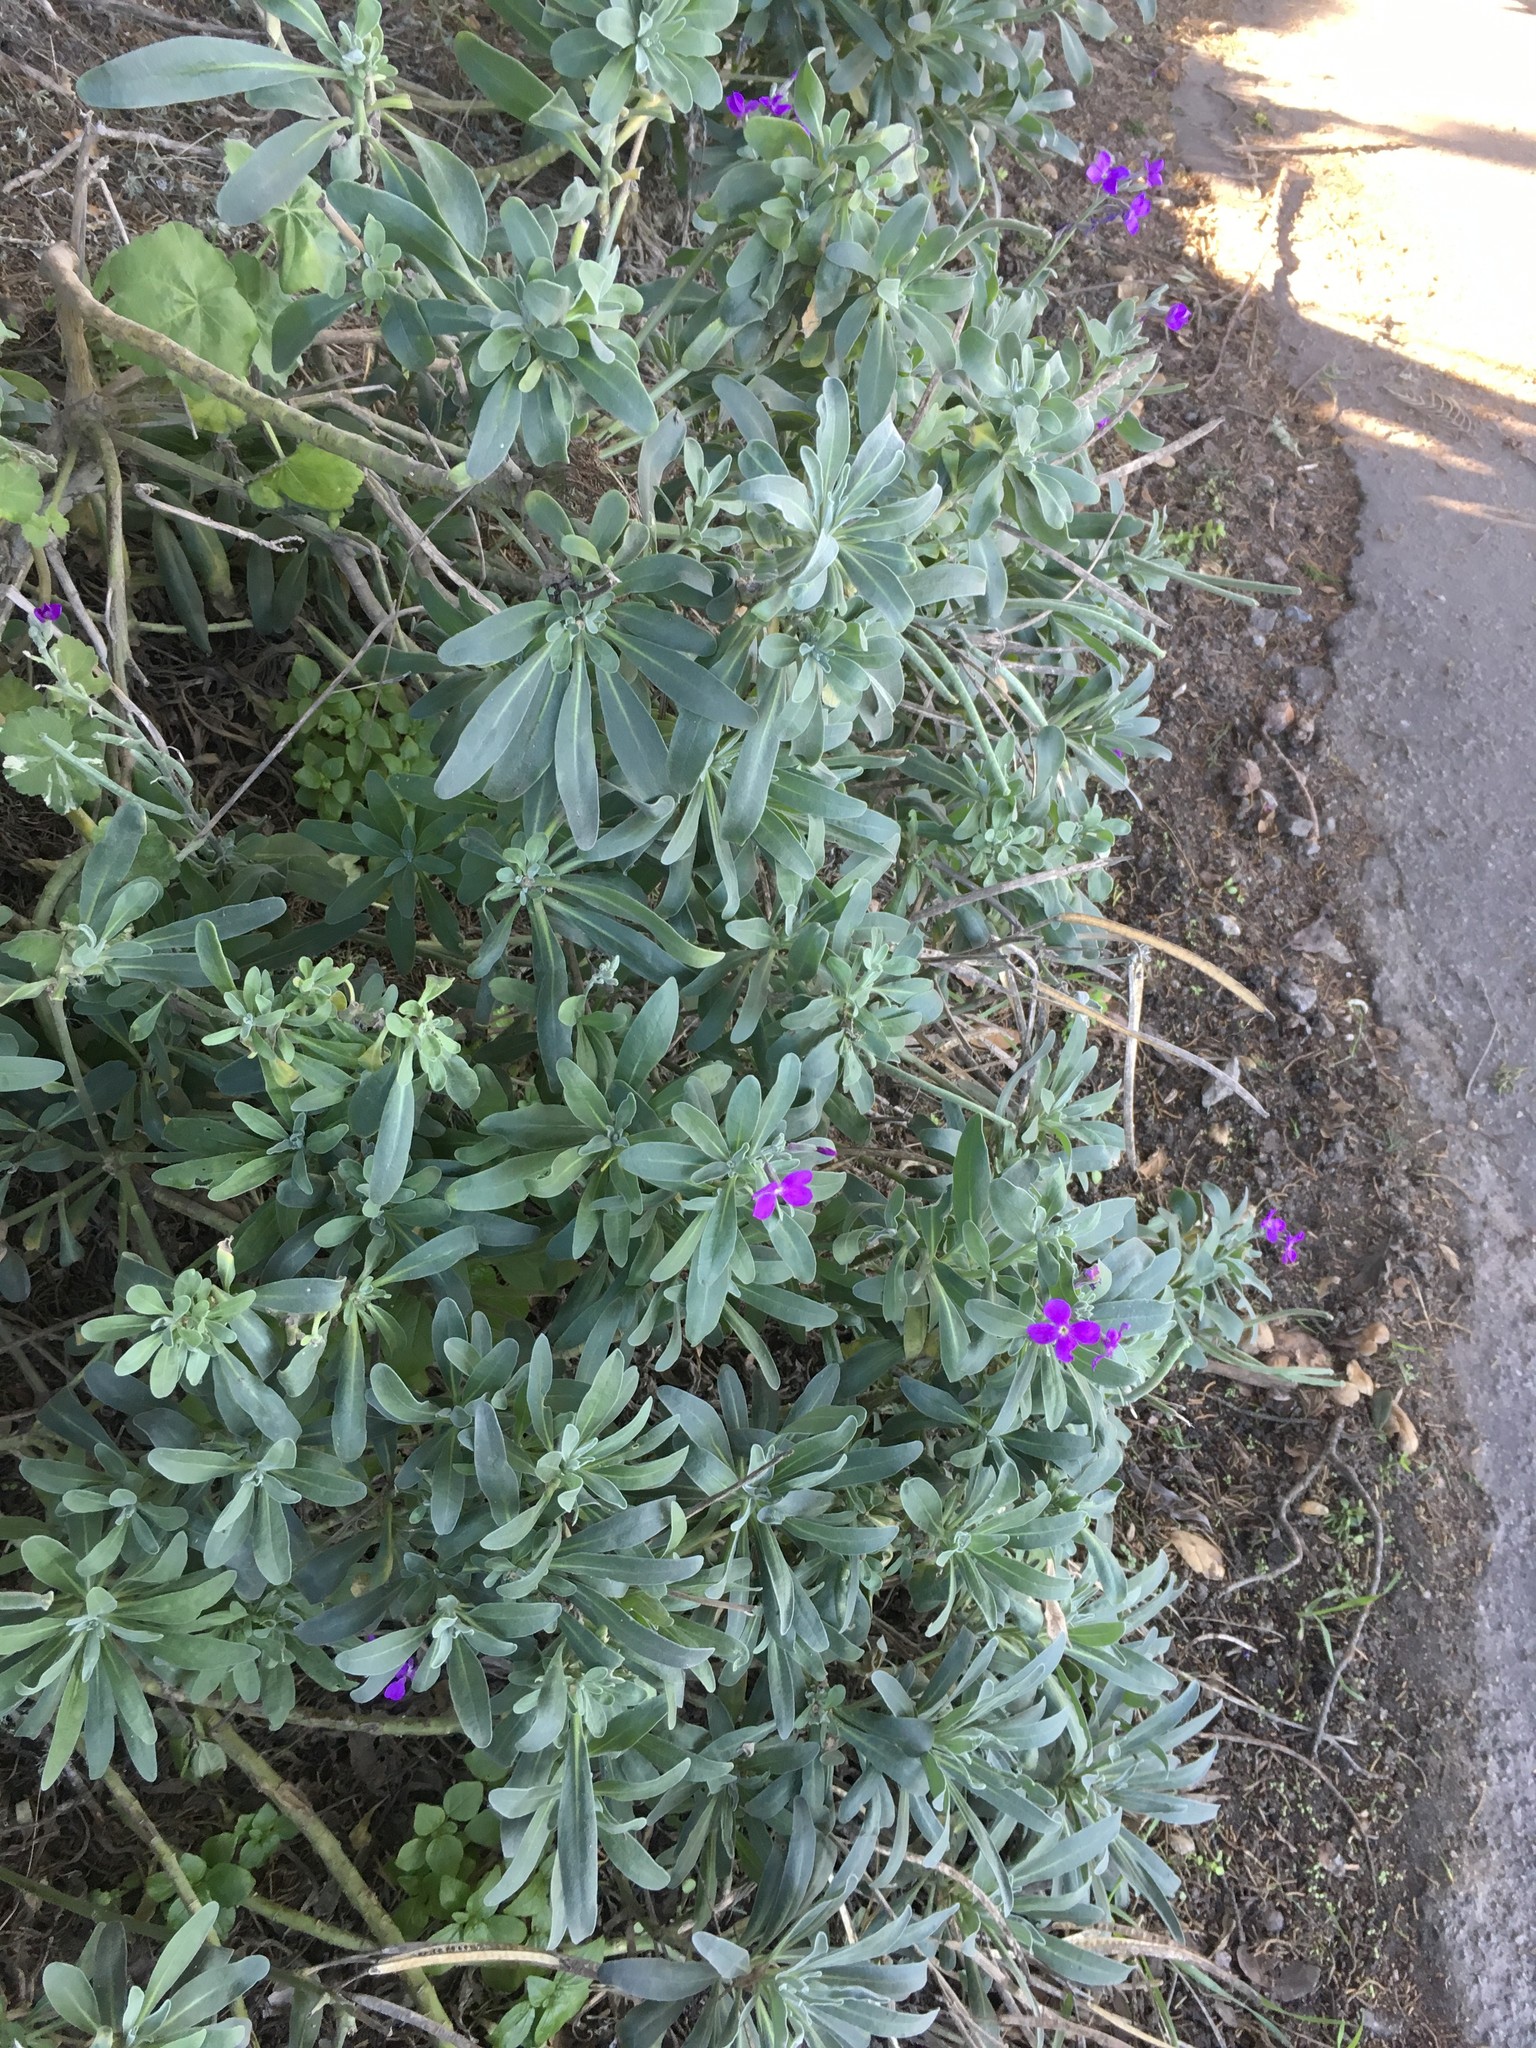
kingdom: Plantae
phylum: Tracheophyta
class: Magnoliopsida
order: Brassicales
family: Brassicaceae
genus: Matthiola
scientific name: Matthiola incana
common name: Hoary stock
